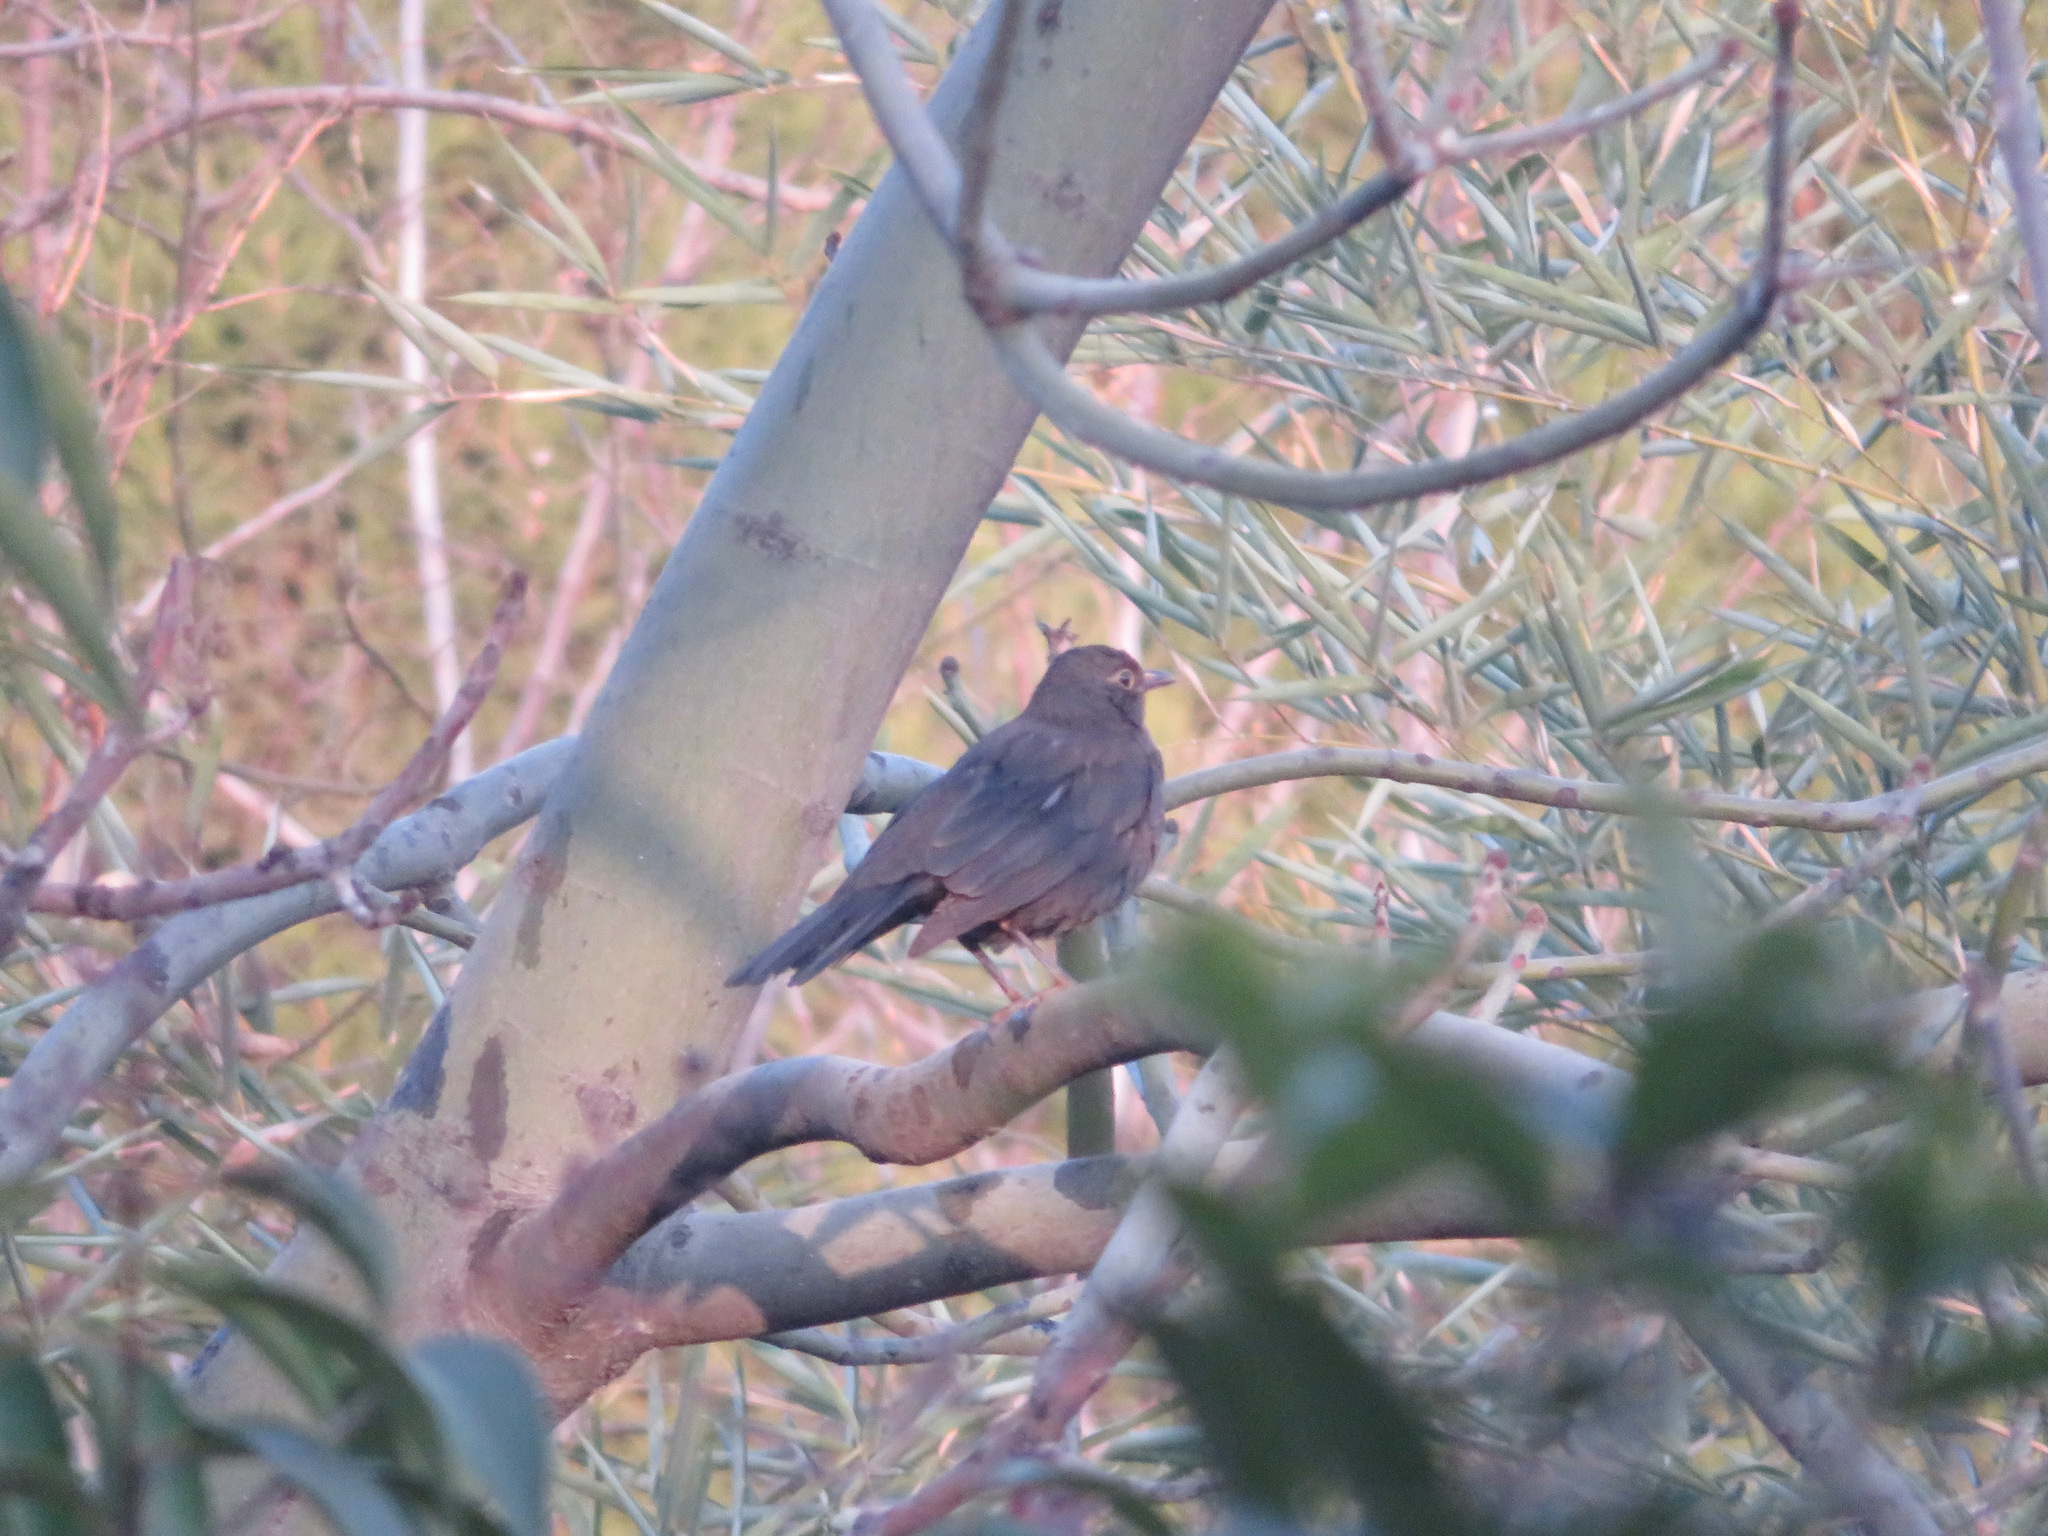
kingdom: Animalia
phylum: Chordata
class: Aves
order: Passeriformes
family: Turdidae
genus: Turdus
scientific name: Turdus mandarinus
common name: Chinese blackbird
